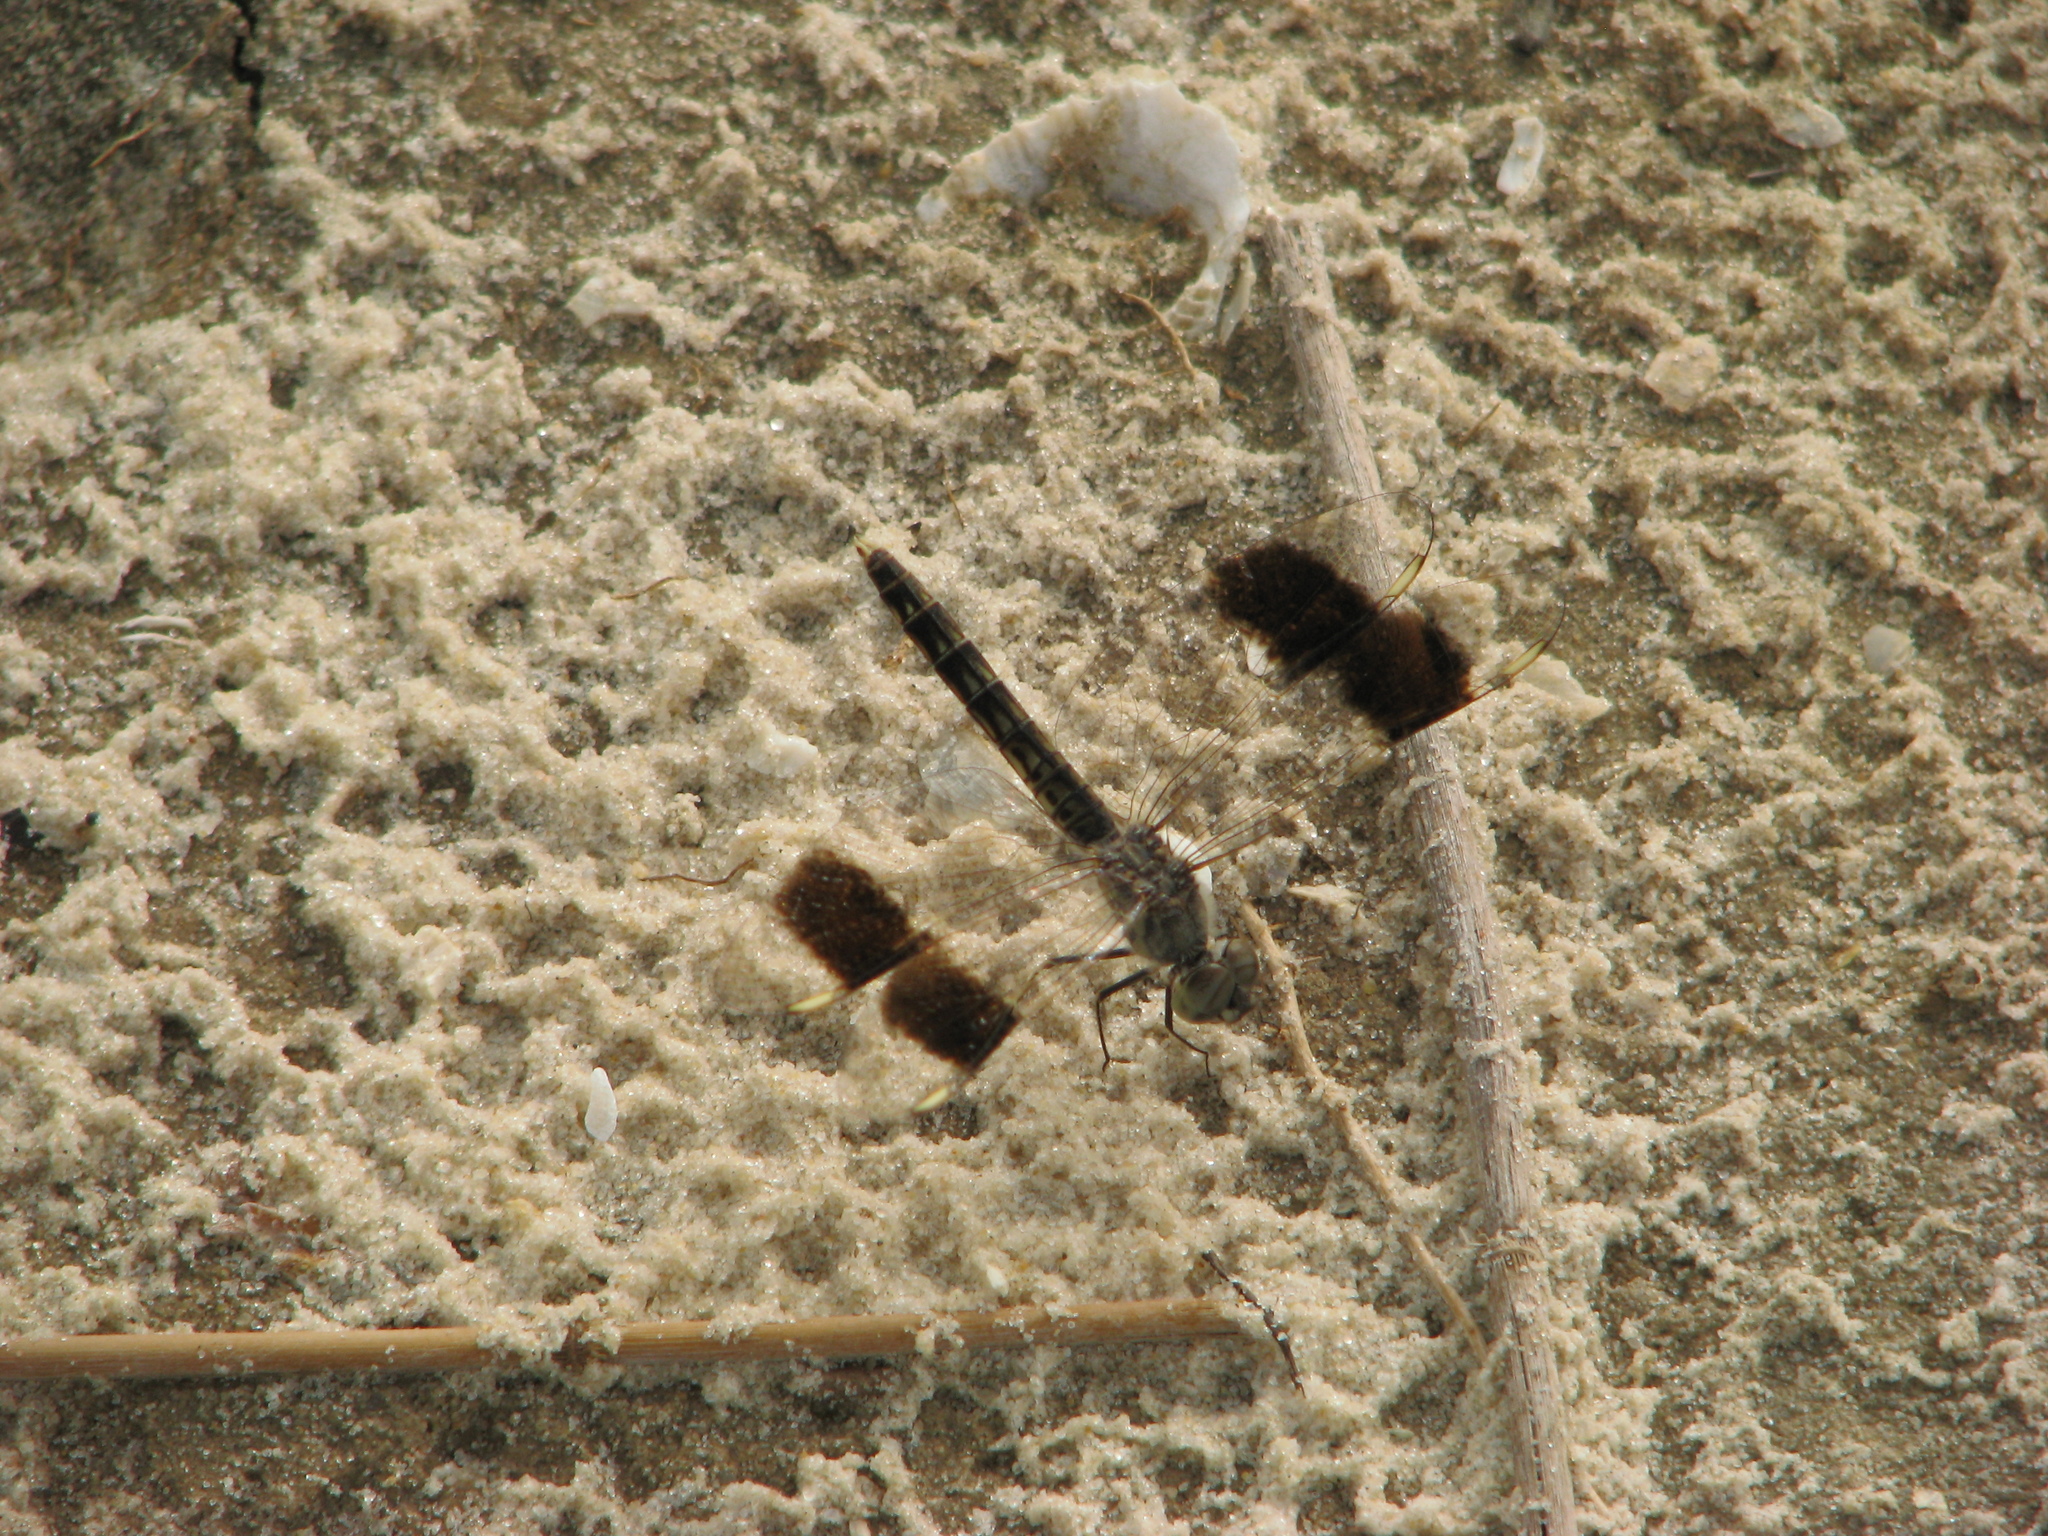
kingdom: Animalia
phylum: Arthropoda
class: Insecta
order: Odonata
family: Libellulidae
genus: Brachythemis
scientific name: Brachythemis impartita
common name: Banded groundling
